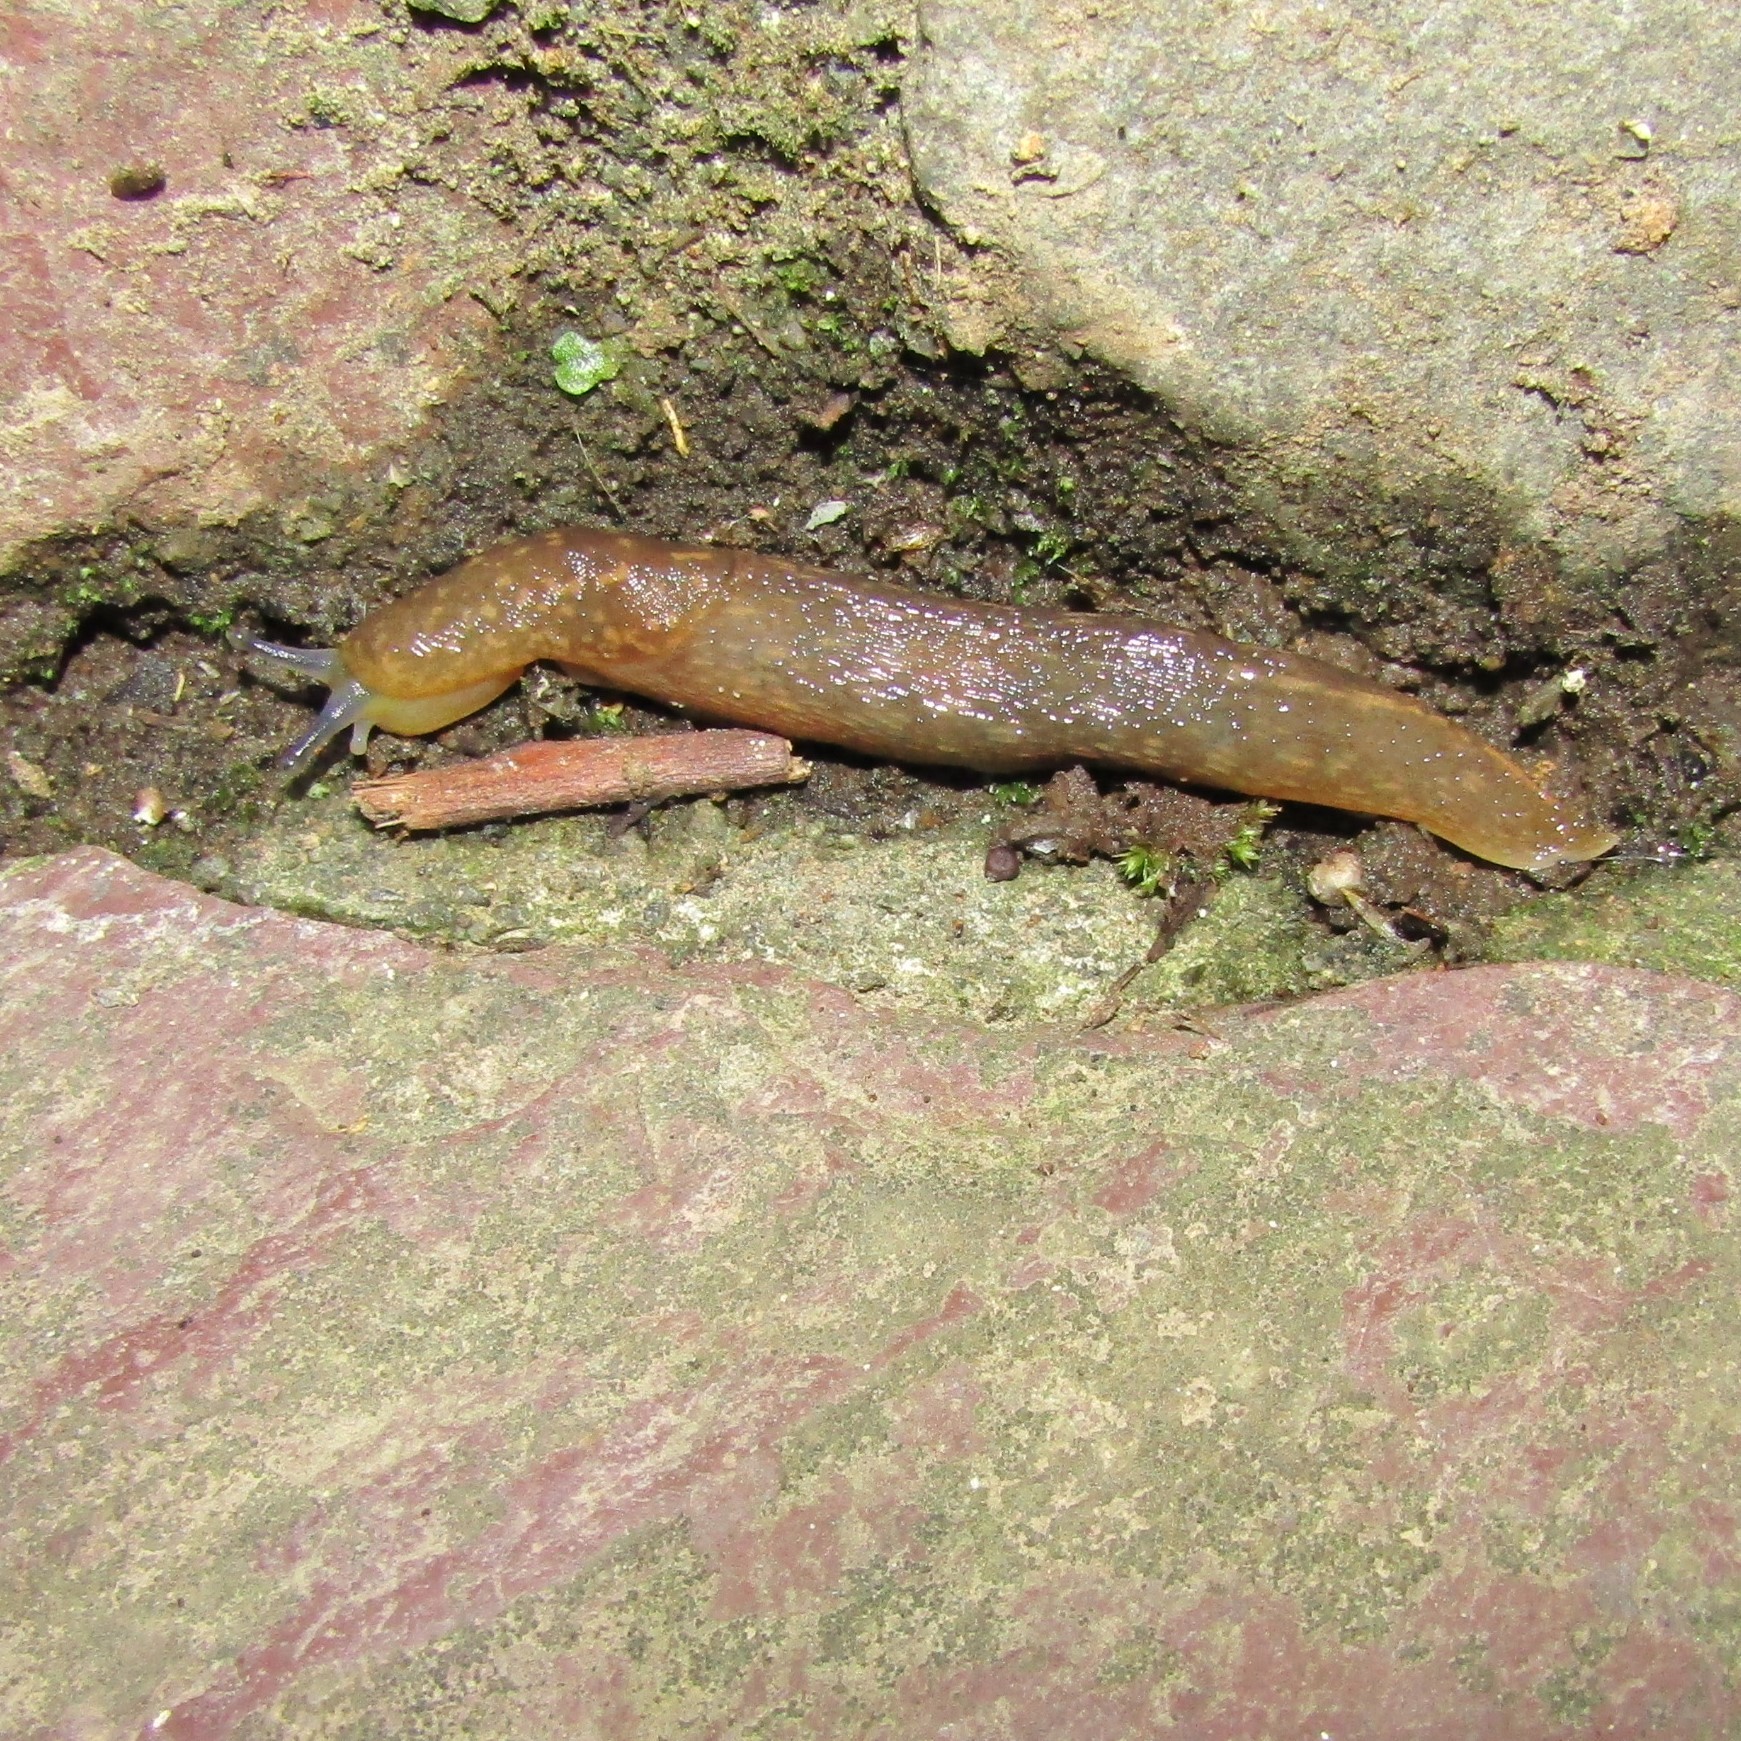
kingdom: Animalia
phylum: Mollusca
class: Gastropoda
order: Stylommatophora
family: Limacidae
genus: Limacus
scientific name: Limacus flavus
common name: Yellow gardenslug
